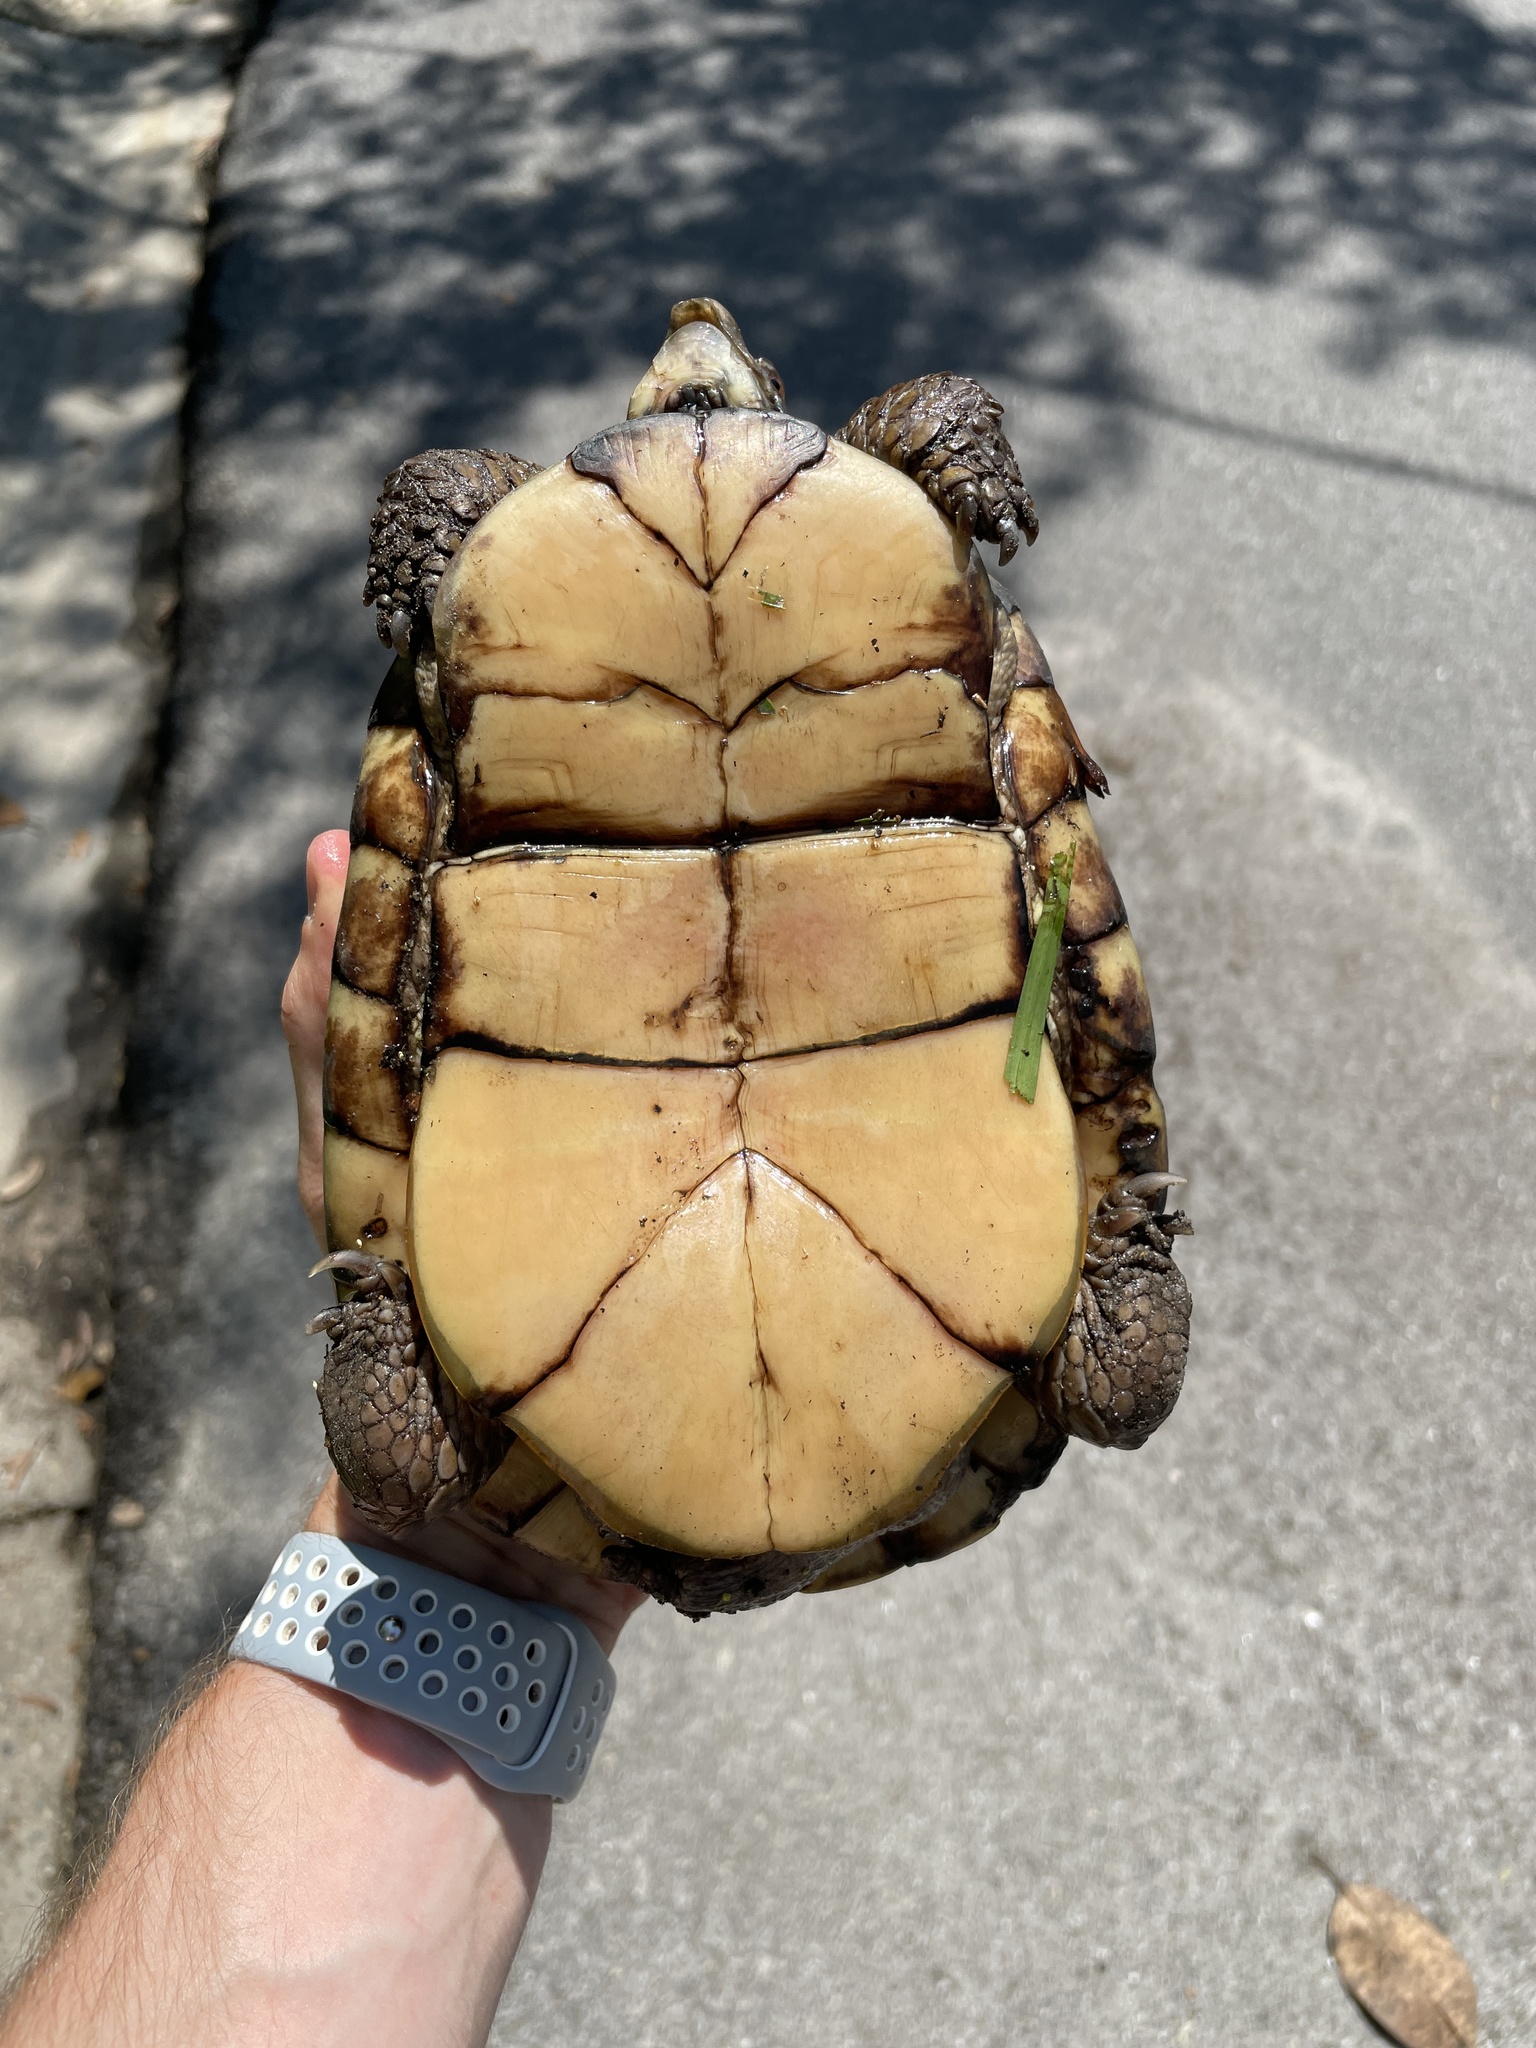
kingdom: Animalia
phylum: Chordata
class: Testudines
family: Emydidae
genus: Terrapene
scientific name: Terrapene carolina
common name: Common box turtle
